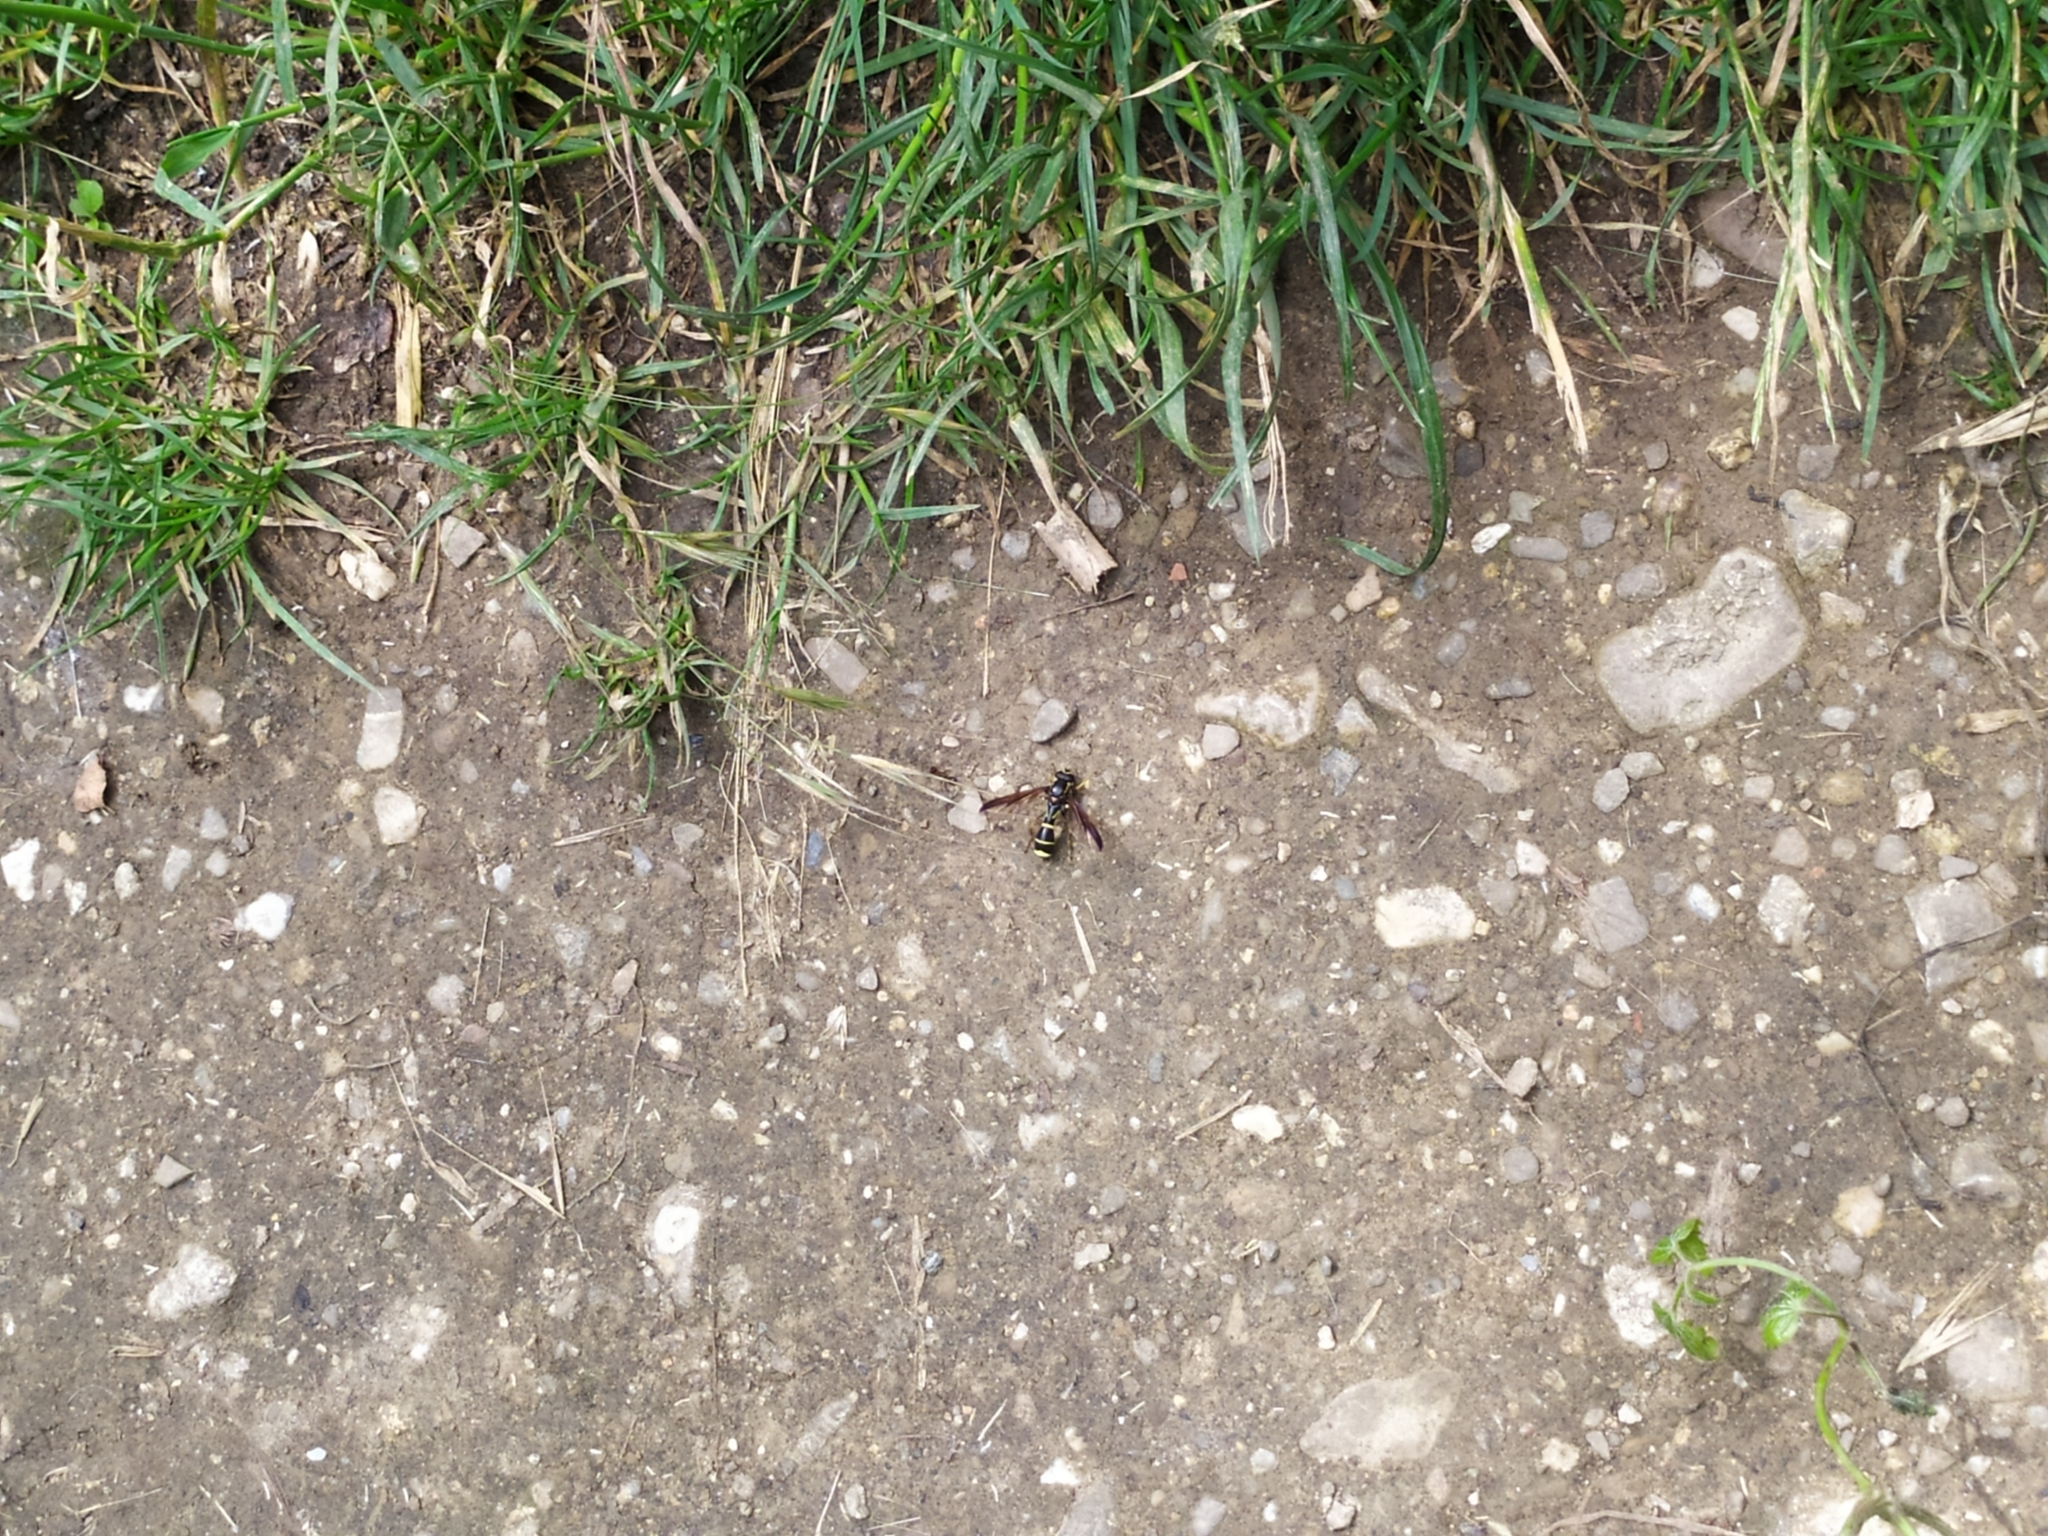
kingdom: Animalia
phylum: Arthropoda
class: Insecta
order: Diptera
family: Syrphidae
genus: Doros
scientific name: Doros profuges
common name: Phantom hoverfly
